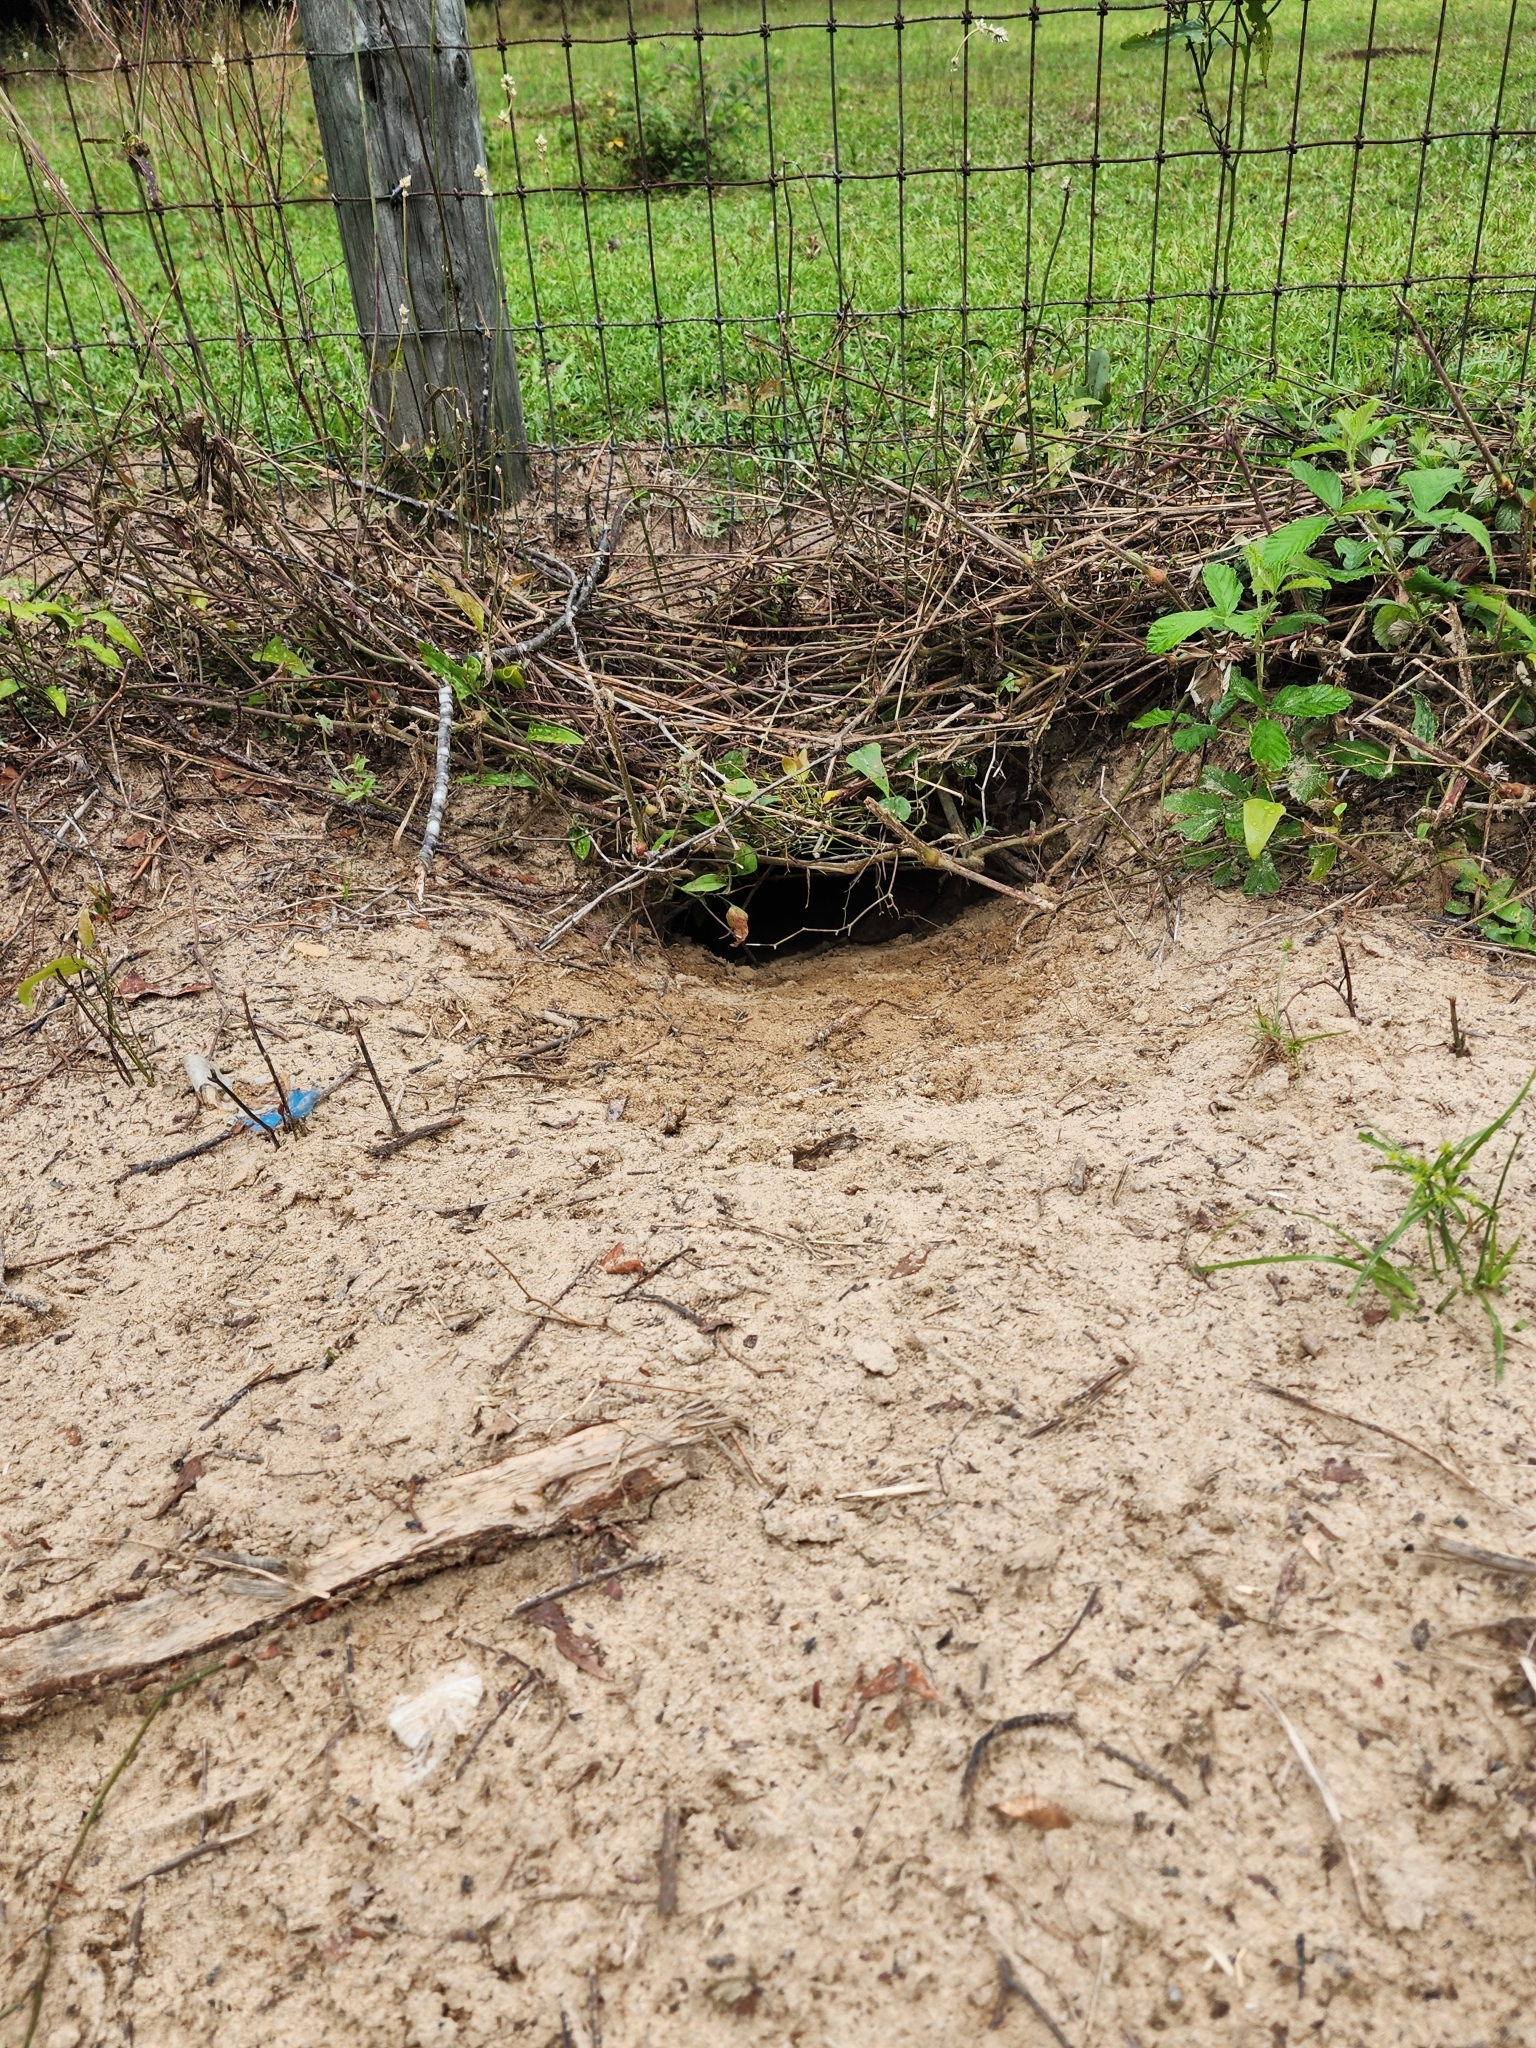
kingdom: Animalia
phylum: Chordata
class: Testudines
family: Testudinidae
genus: Gopherus
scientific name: Gopherus polyphemus
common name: Florida gopher tortoise
